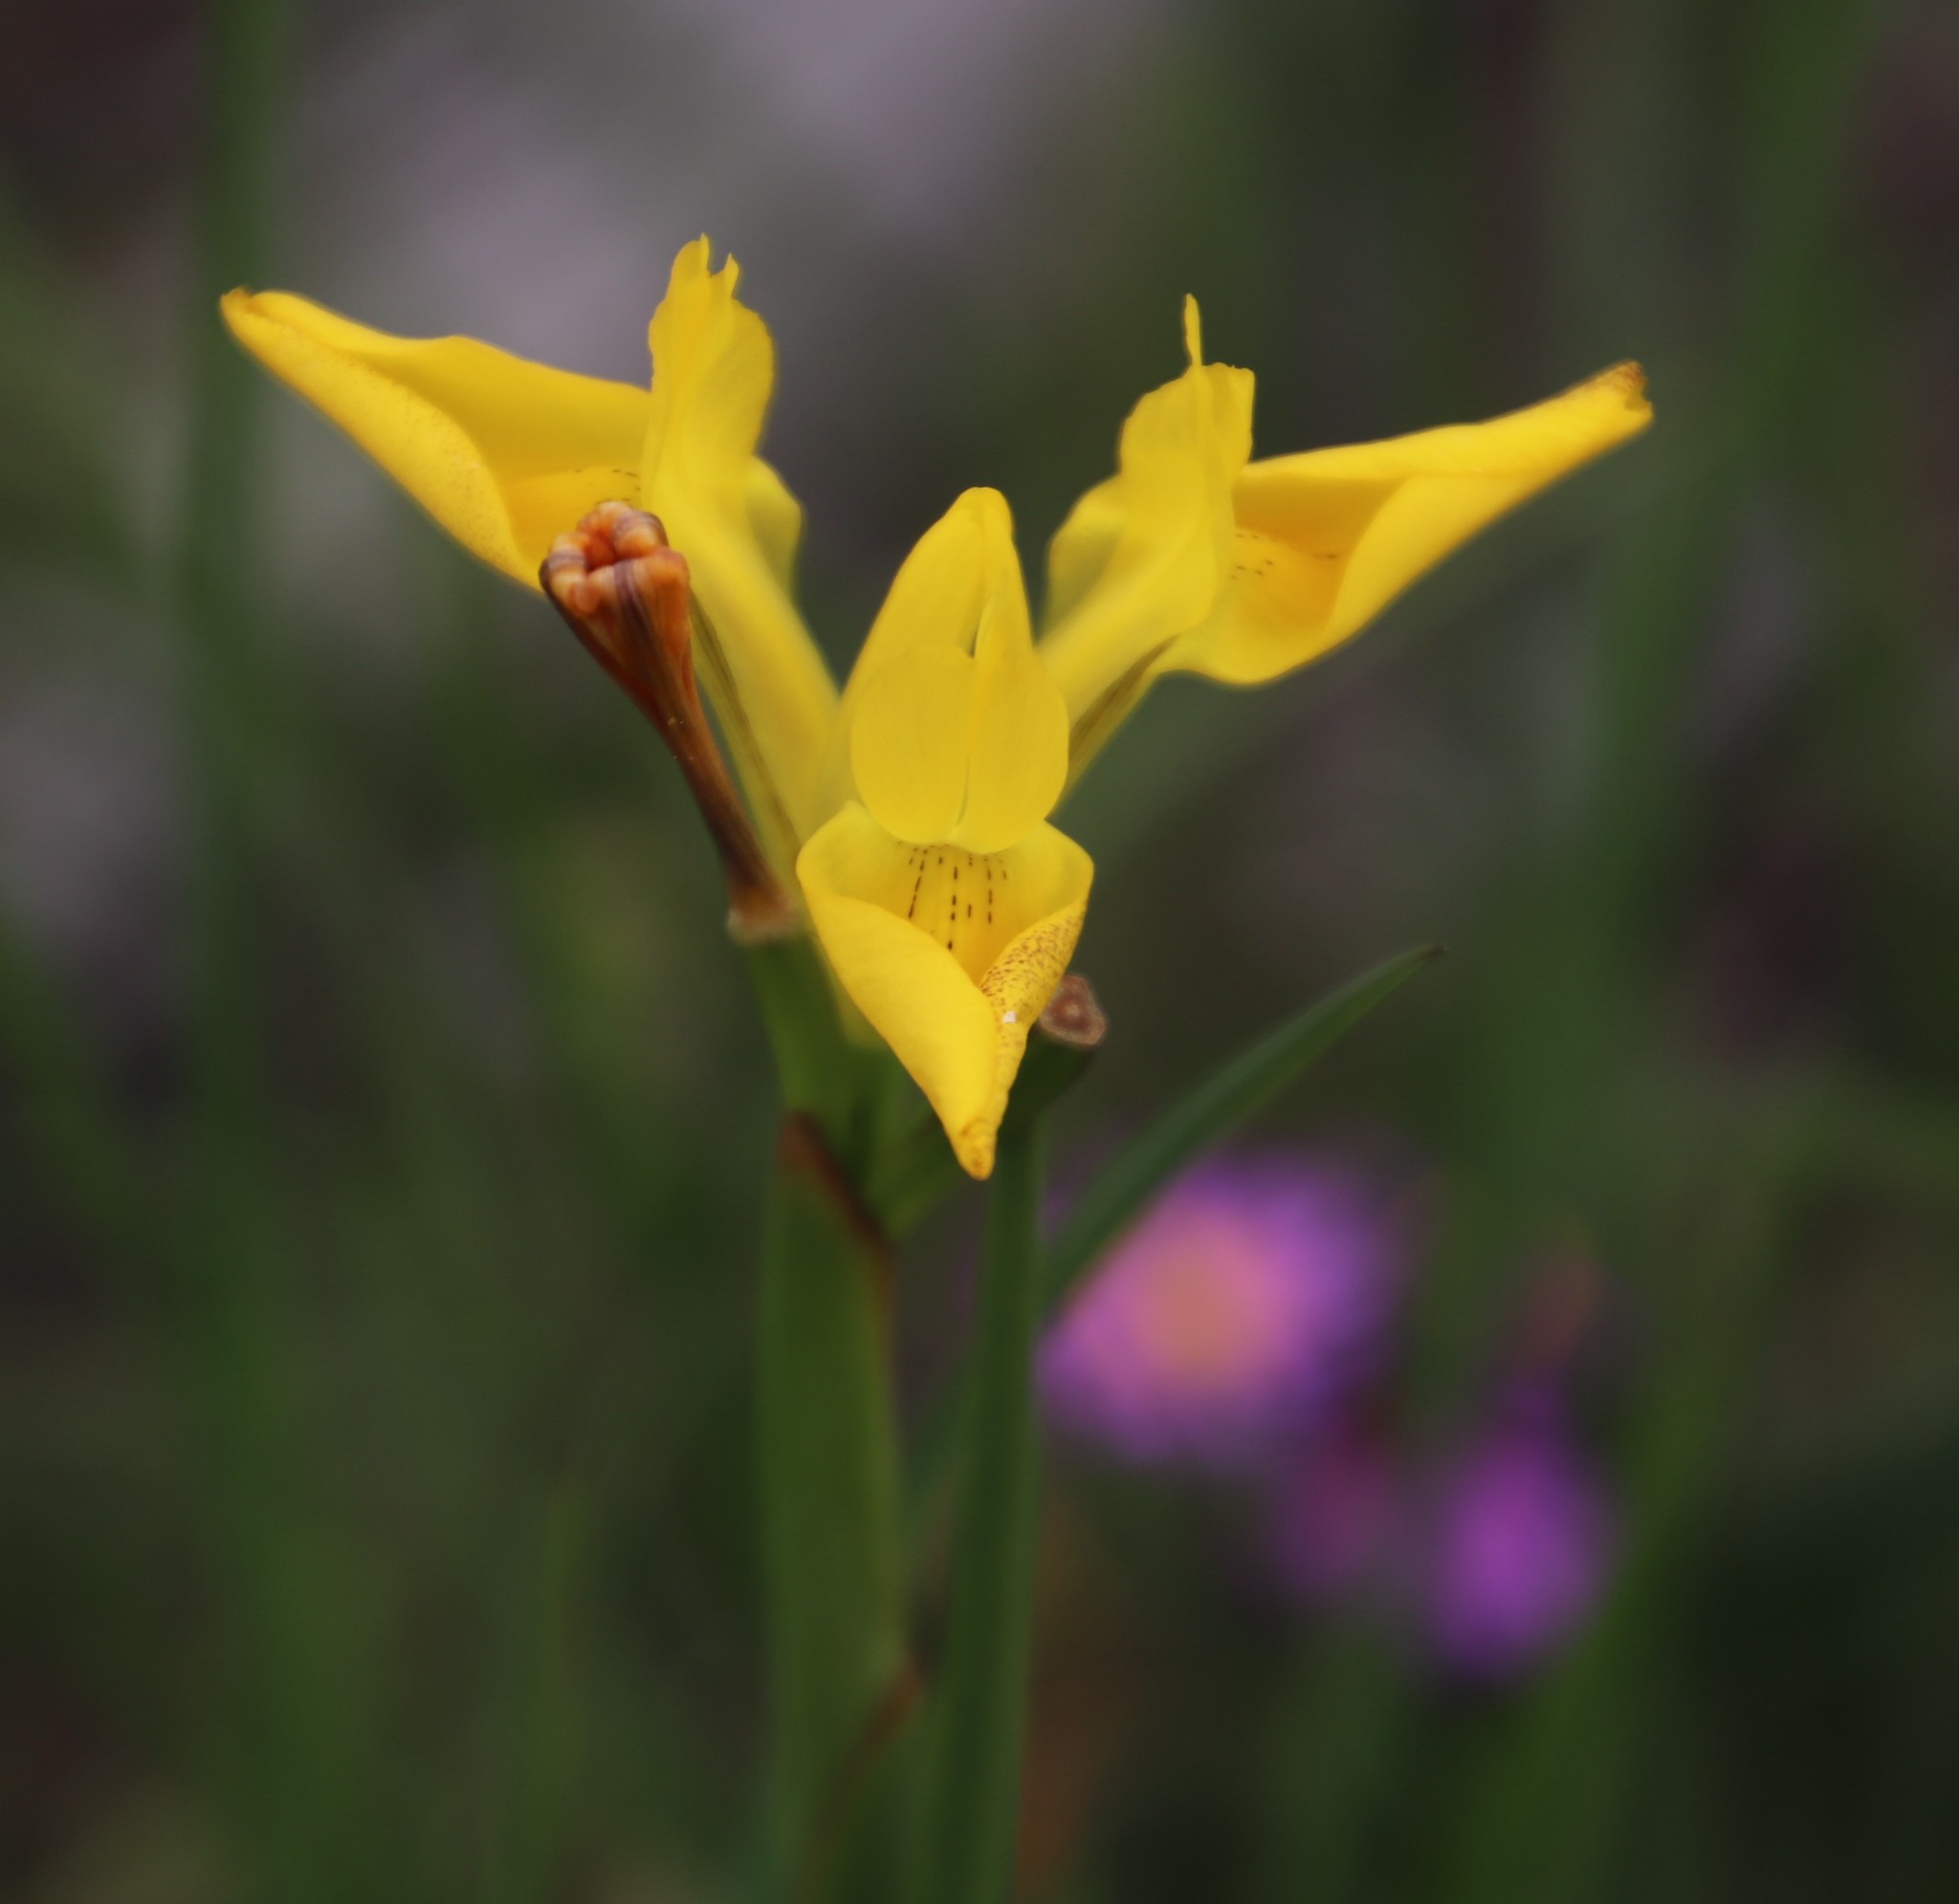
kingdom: Plantae
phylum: Tracheophyta
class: Liliopsida
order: Asparagales
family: Iridaceae
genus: Moraea
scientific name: Moraea neglecta
